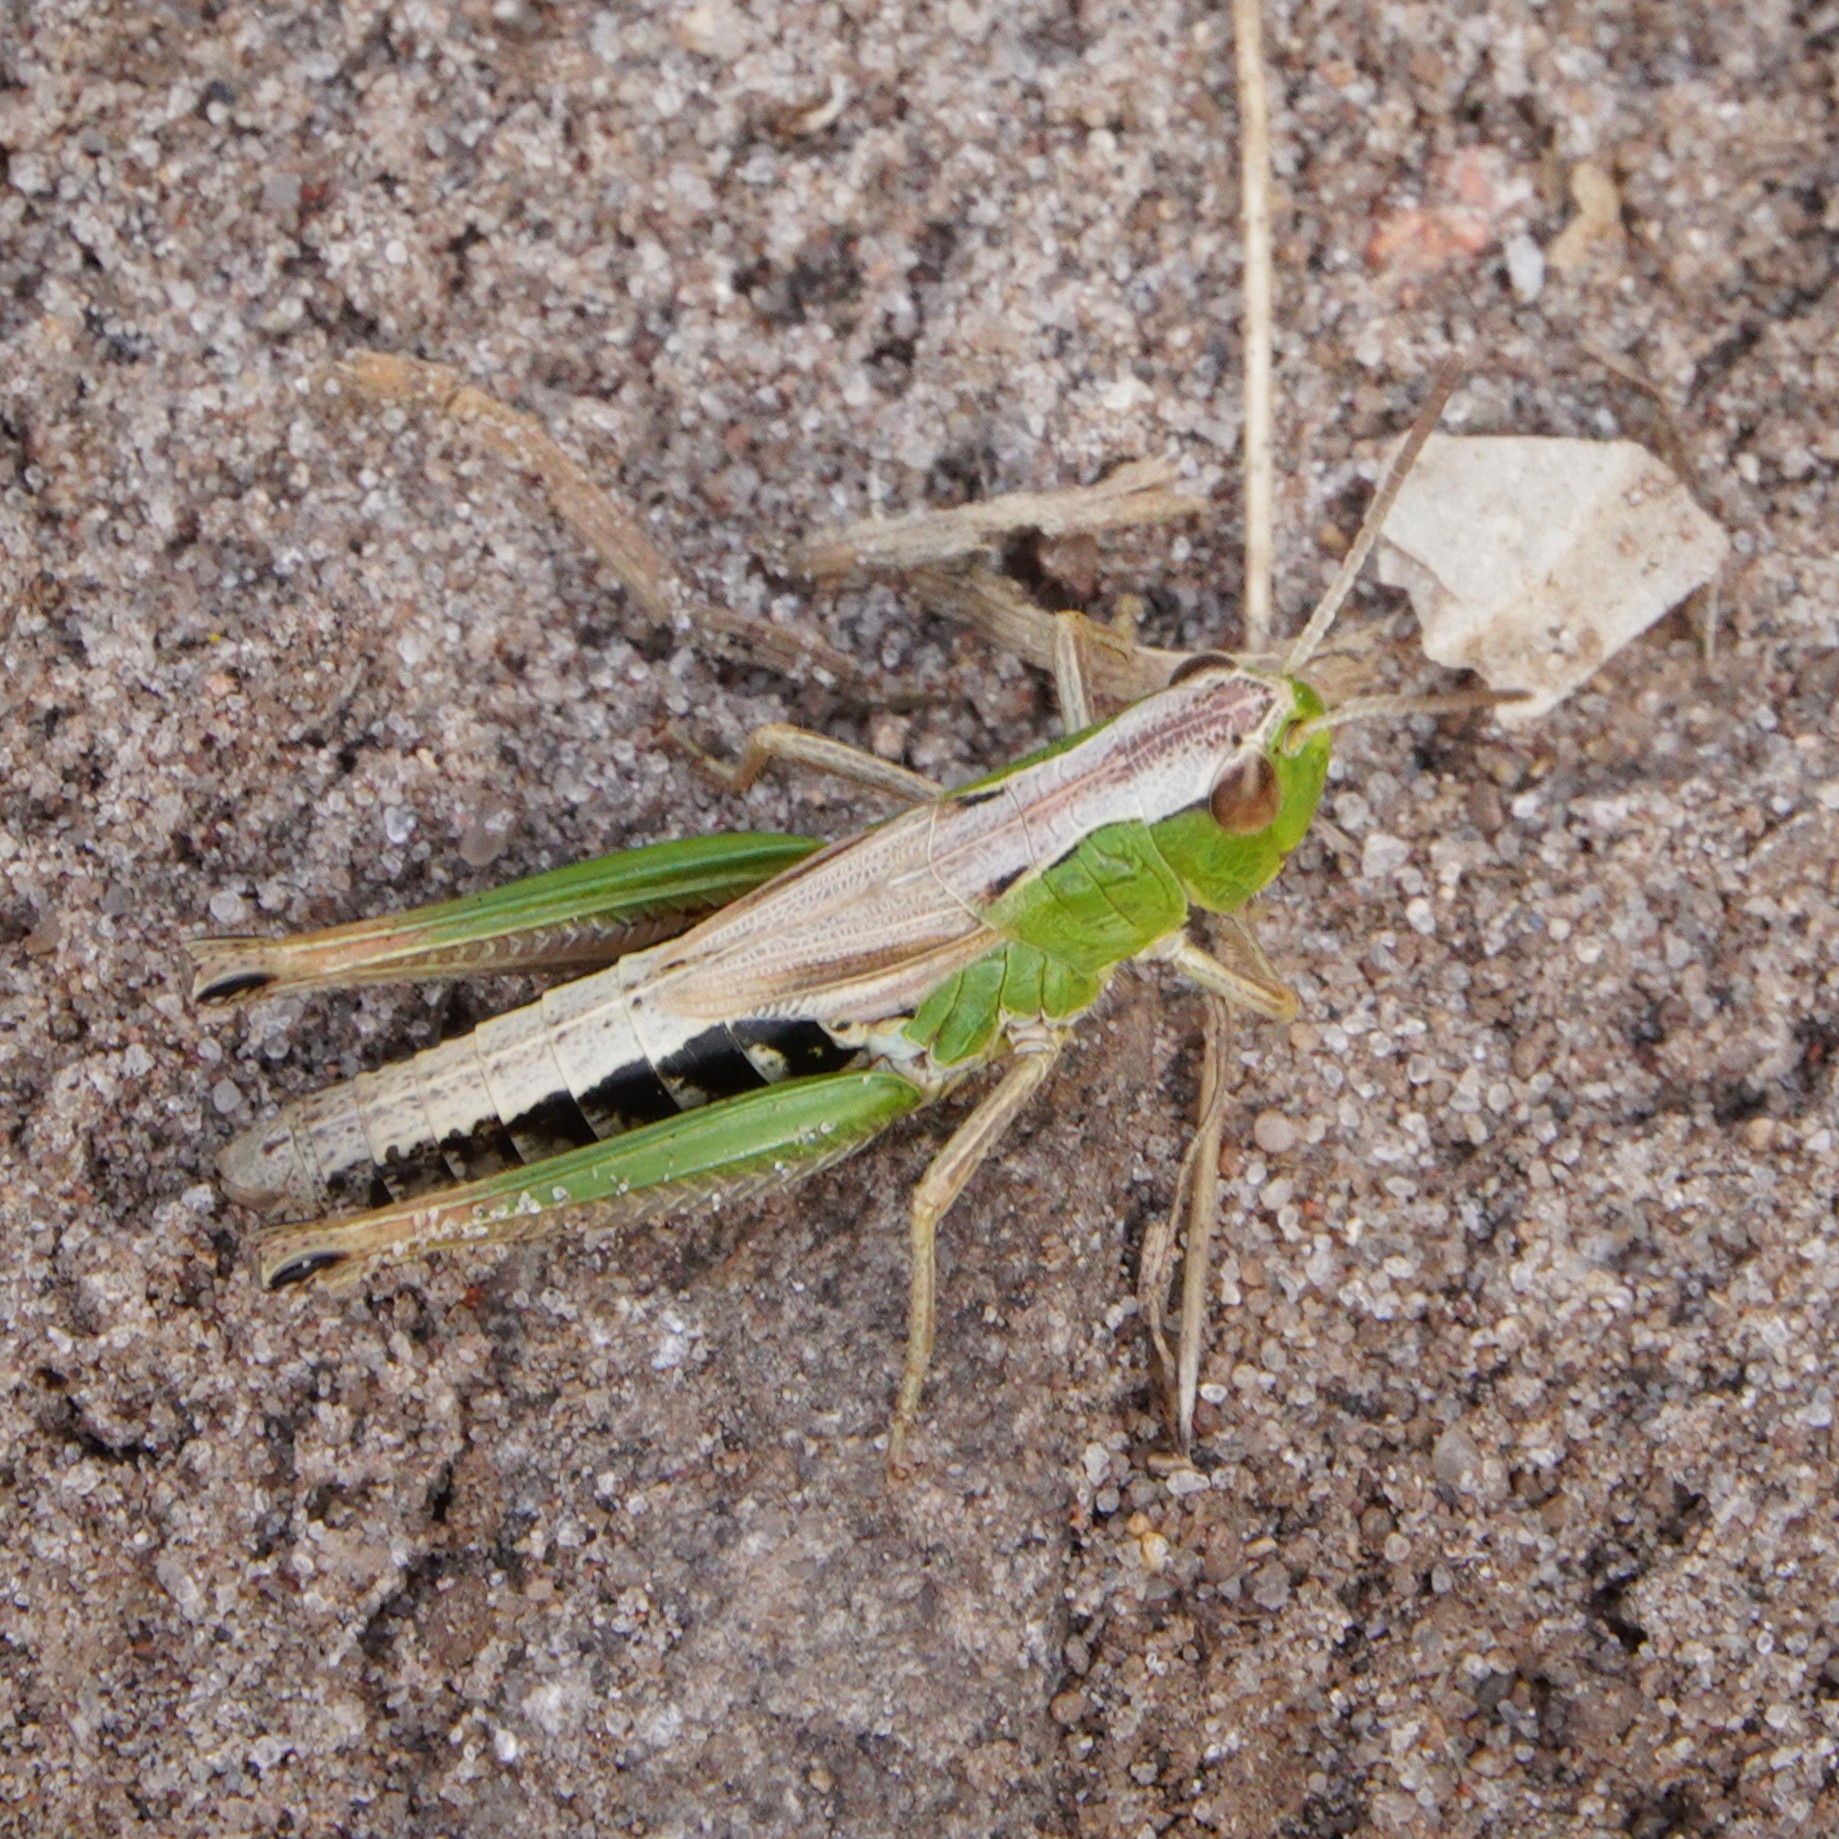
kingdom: Animalia
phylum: Arthropoda
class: Insecta
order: Orthoptera
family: Acrididae
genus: Pseudochorthippus
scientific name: Pseudochorthippus parallelus
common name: Meadow grasshopper
